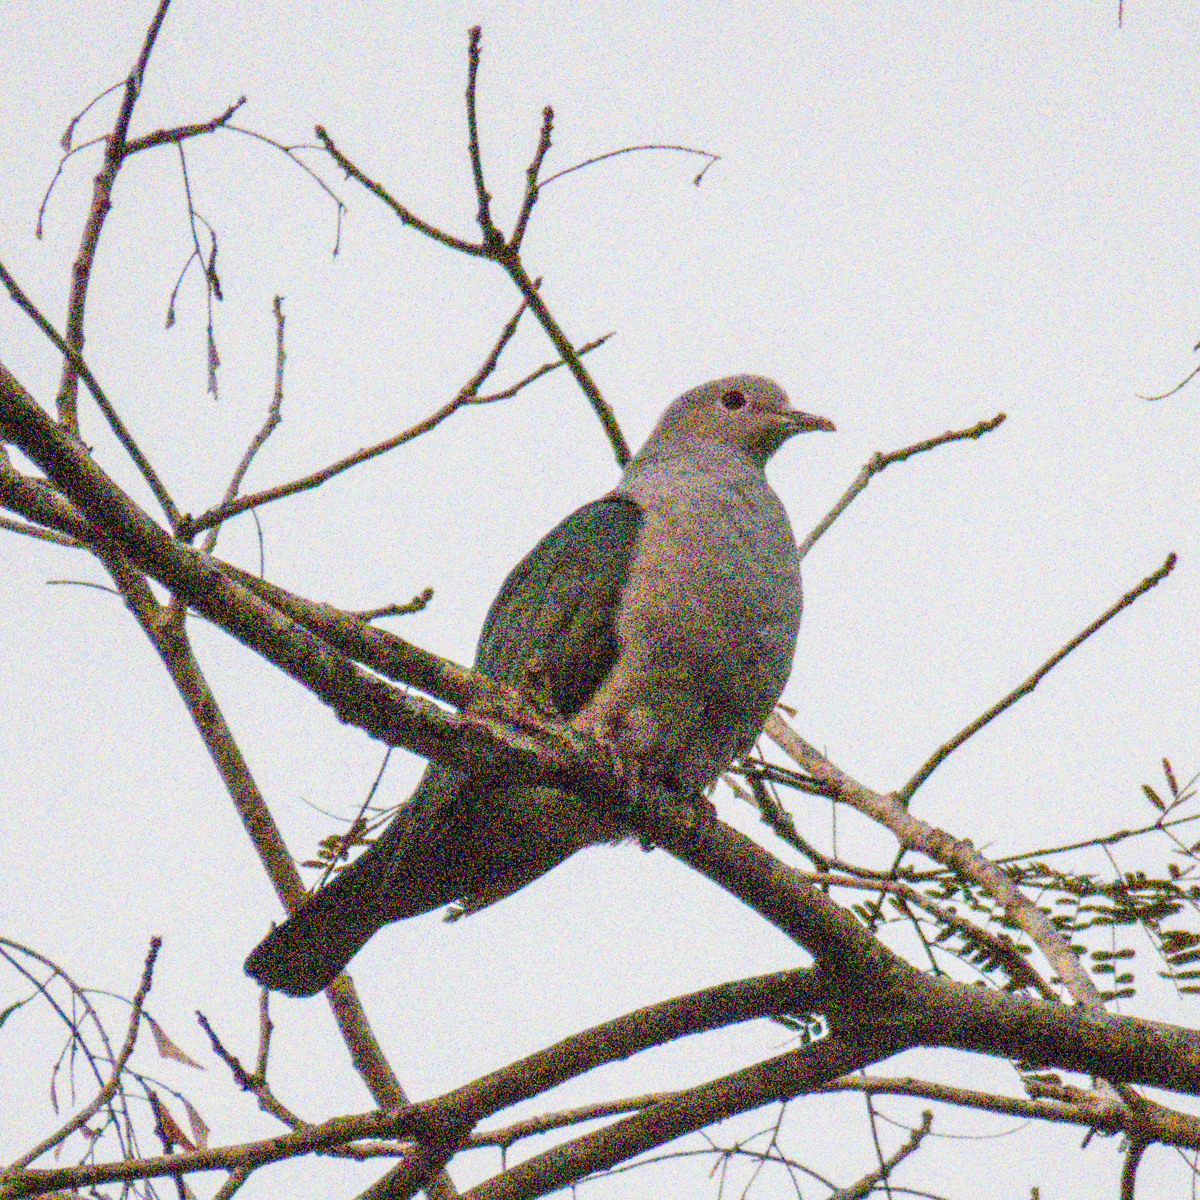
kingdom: Animalia
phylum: Chordata
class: Aves
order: Columbiformes
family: Columbidae
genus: Ducula
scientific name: Ducula aenea
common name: Green imperial pigeon
